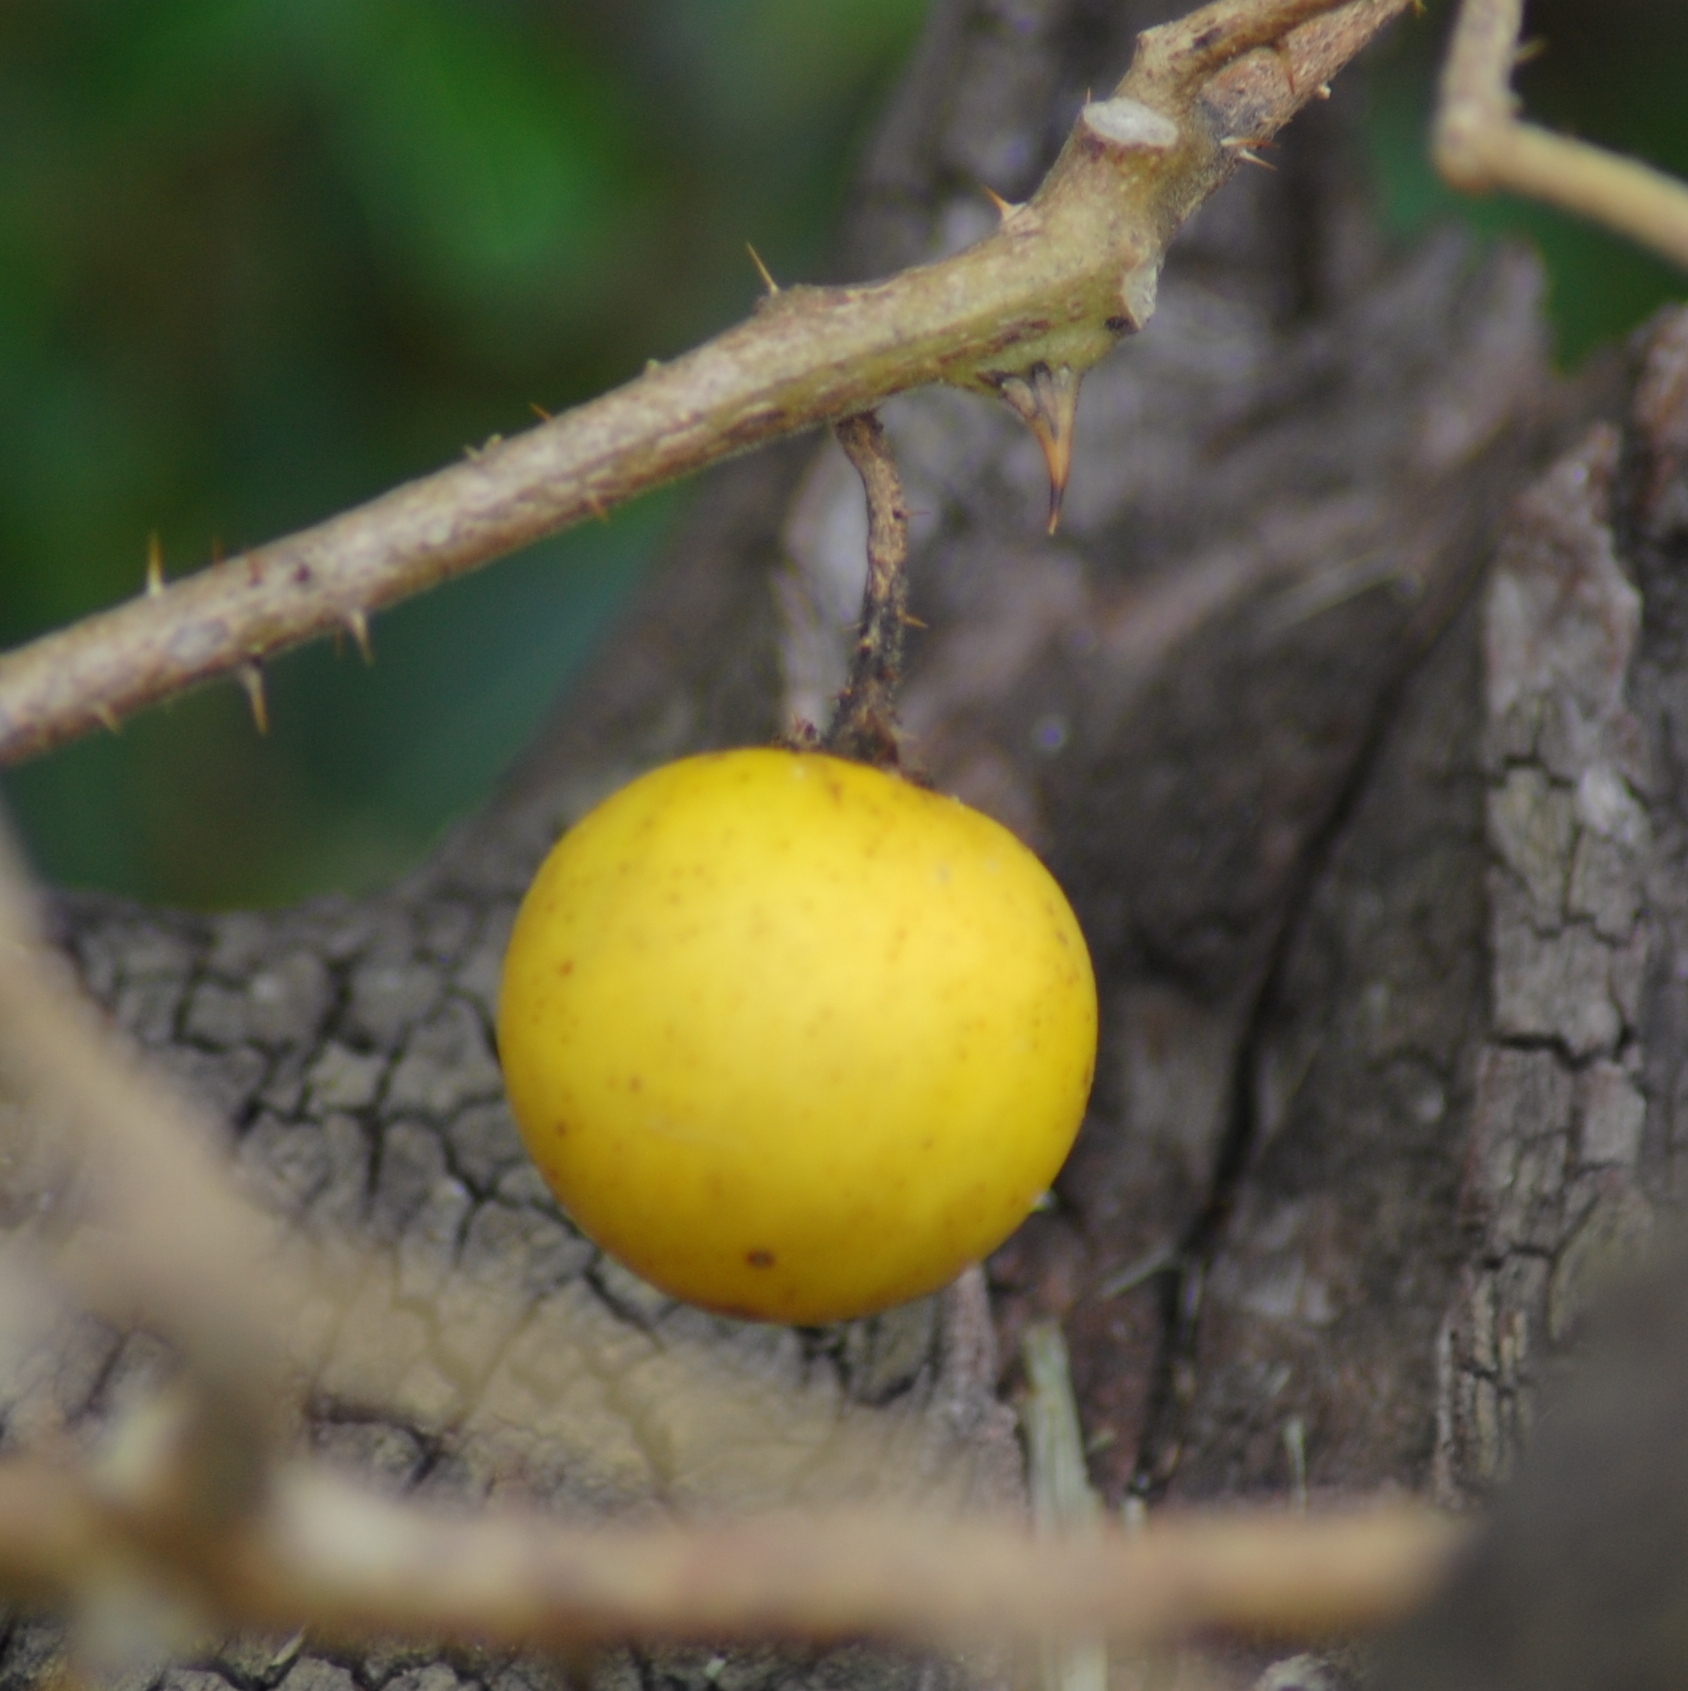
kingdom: Plantae
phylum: Tracheophyta
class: Magnoliopsida
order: Solanales
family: Solanaceae
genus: Solanum
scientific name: Solanum viarum
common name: Tropical soda apple
